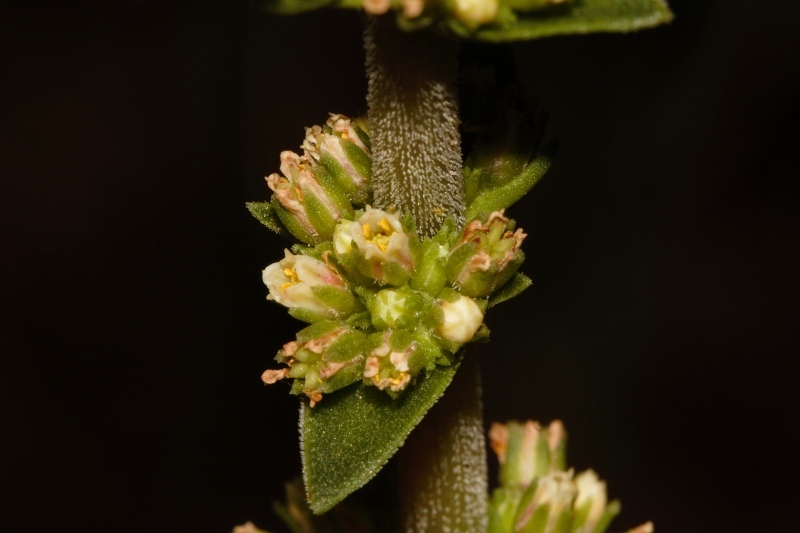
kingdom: Plantae
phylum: Tracheophyta
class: Magnoliopsida
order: Saxifragales
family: Crassulaceae
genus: Crassula
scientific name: Crassula nodulosa
